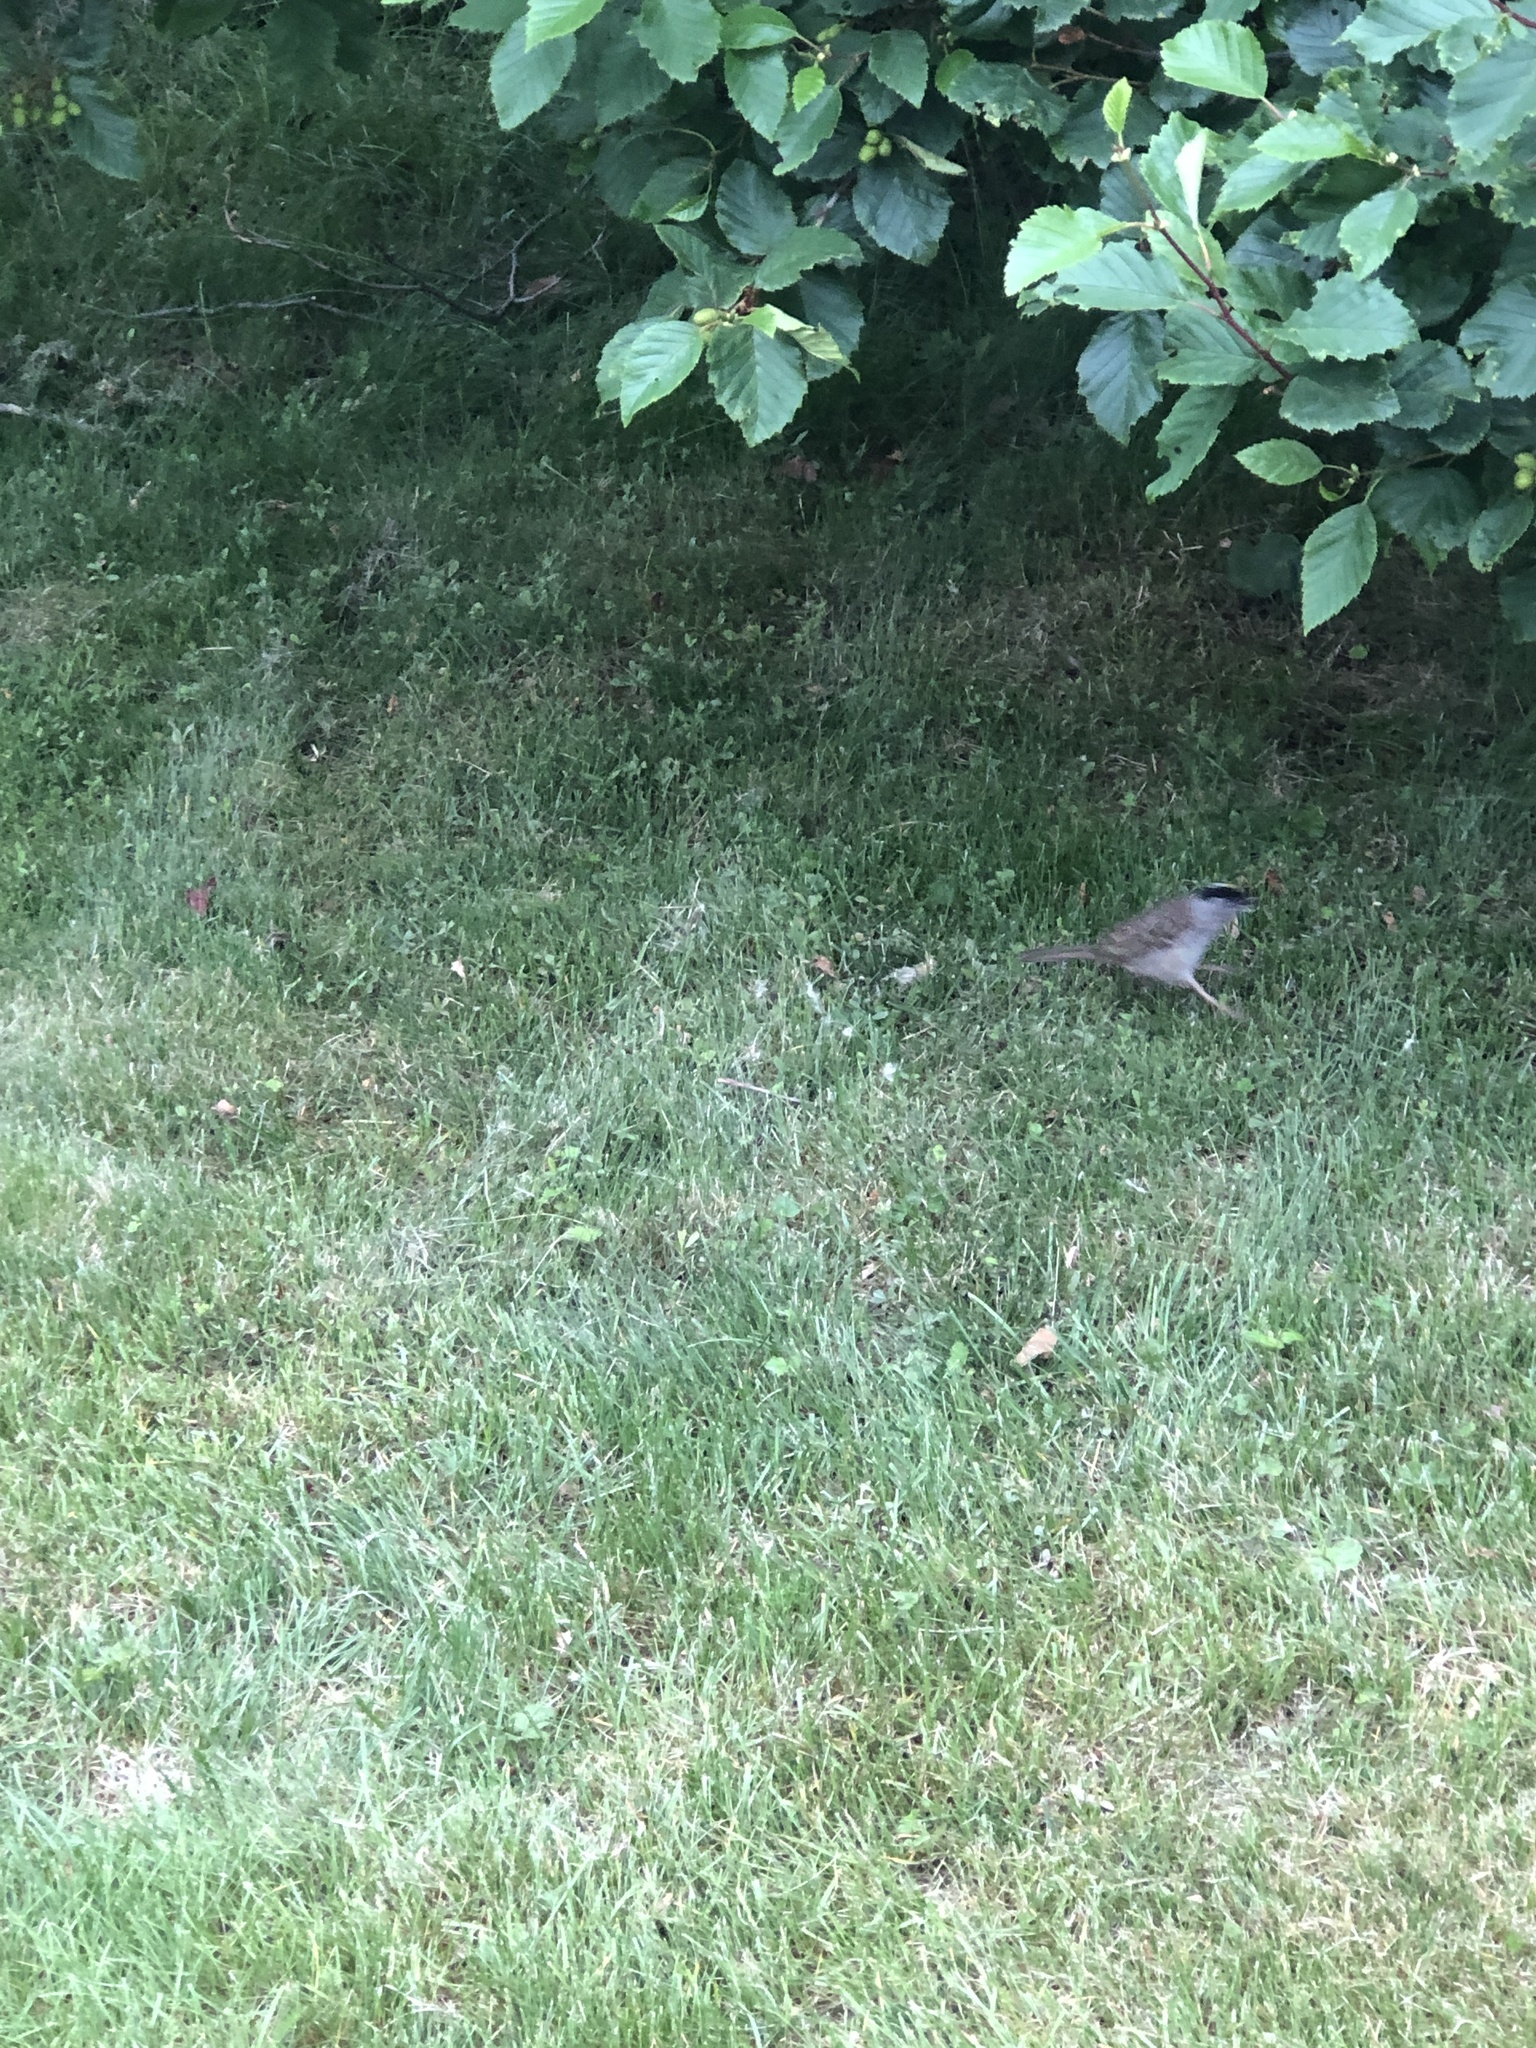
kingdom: Animalia
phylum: Chordata
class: Aves
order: Passeriformes
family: Passerellidae
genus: Zonotrichia
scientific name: Zonotrichia atricapilla
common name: Golden-crowned sparrow
